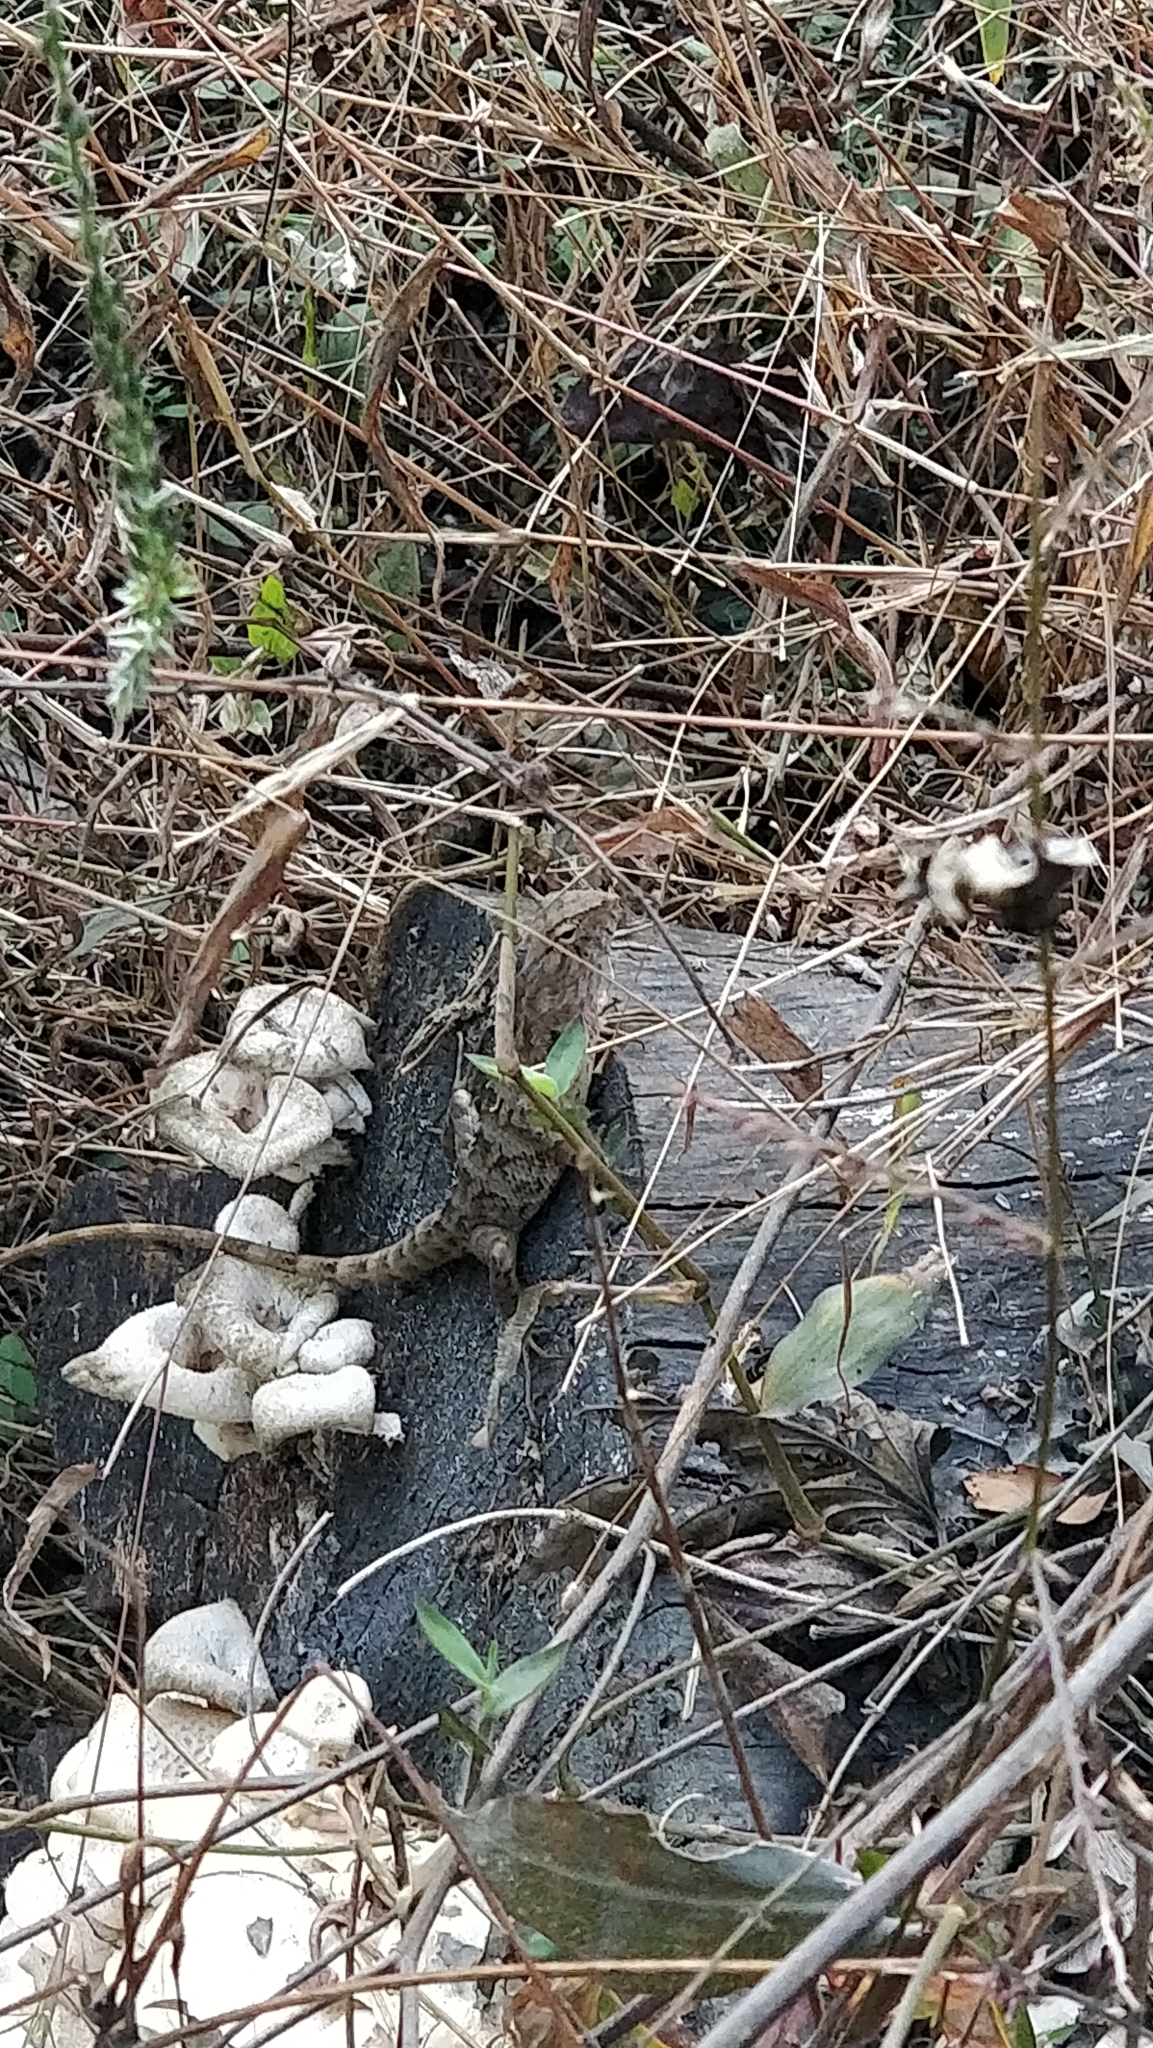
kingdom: Animalia
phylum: Chordata
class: Squamata
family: Agamidae
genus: Calotes
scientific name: Calotes versicolor
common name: Oriental garden lizard
